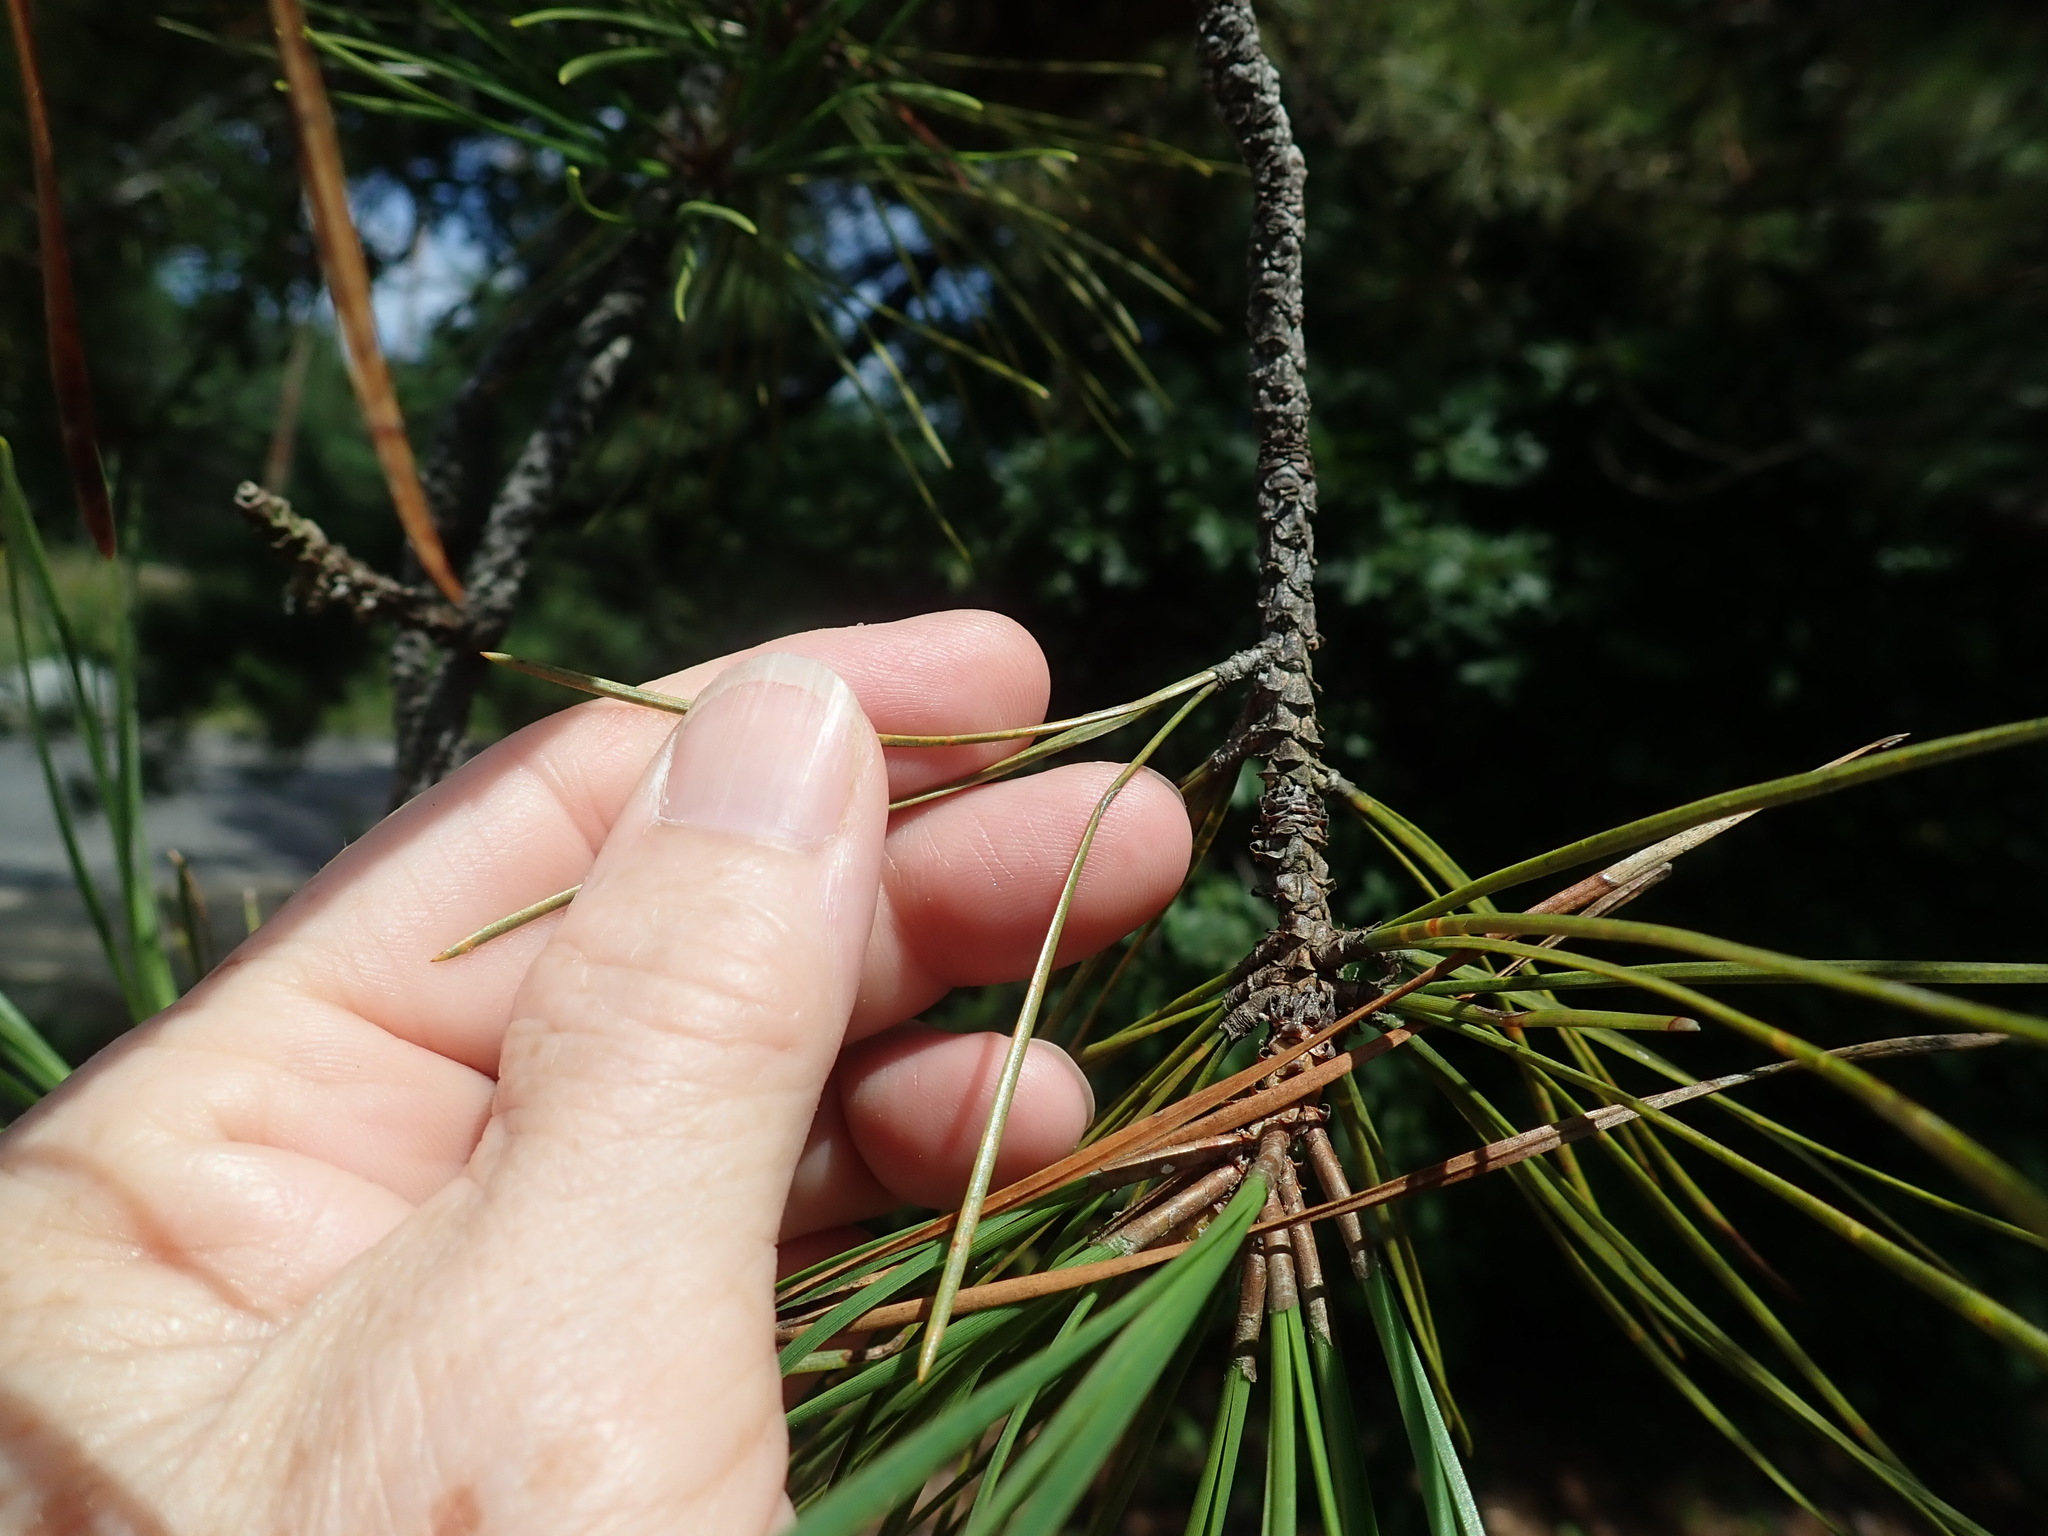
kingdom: Plantae
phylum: Tracheophyta
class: Pinopsida
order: Pinales
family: Pinaceae
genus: Pinus
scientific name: Pinus rigida
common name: Pitch pine
